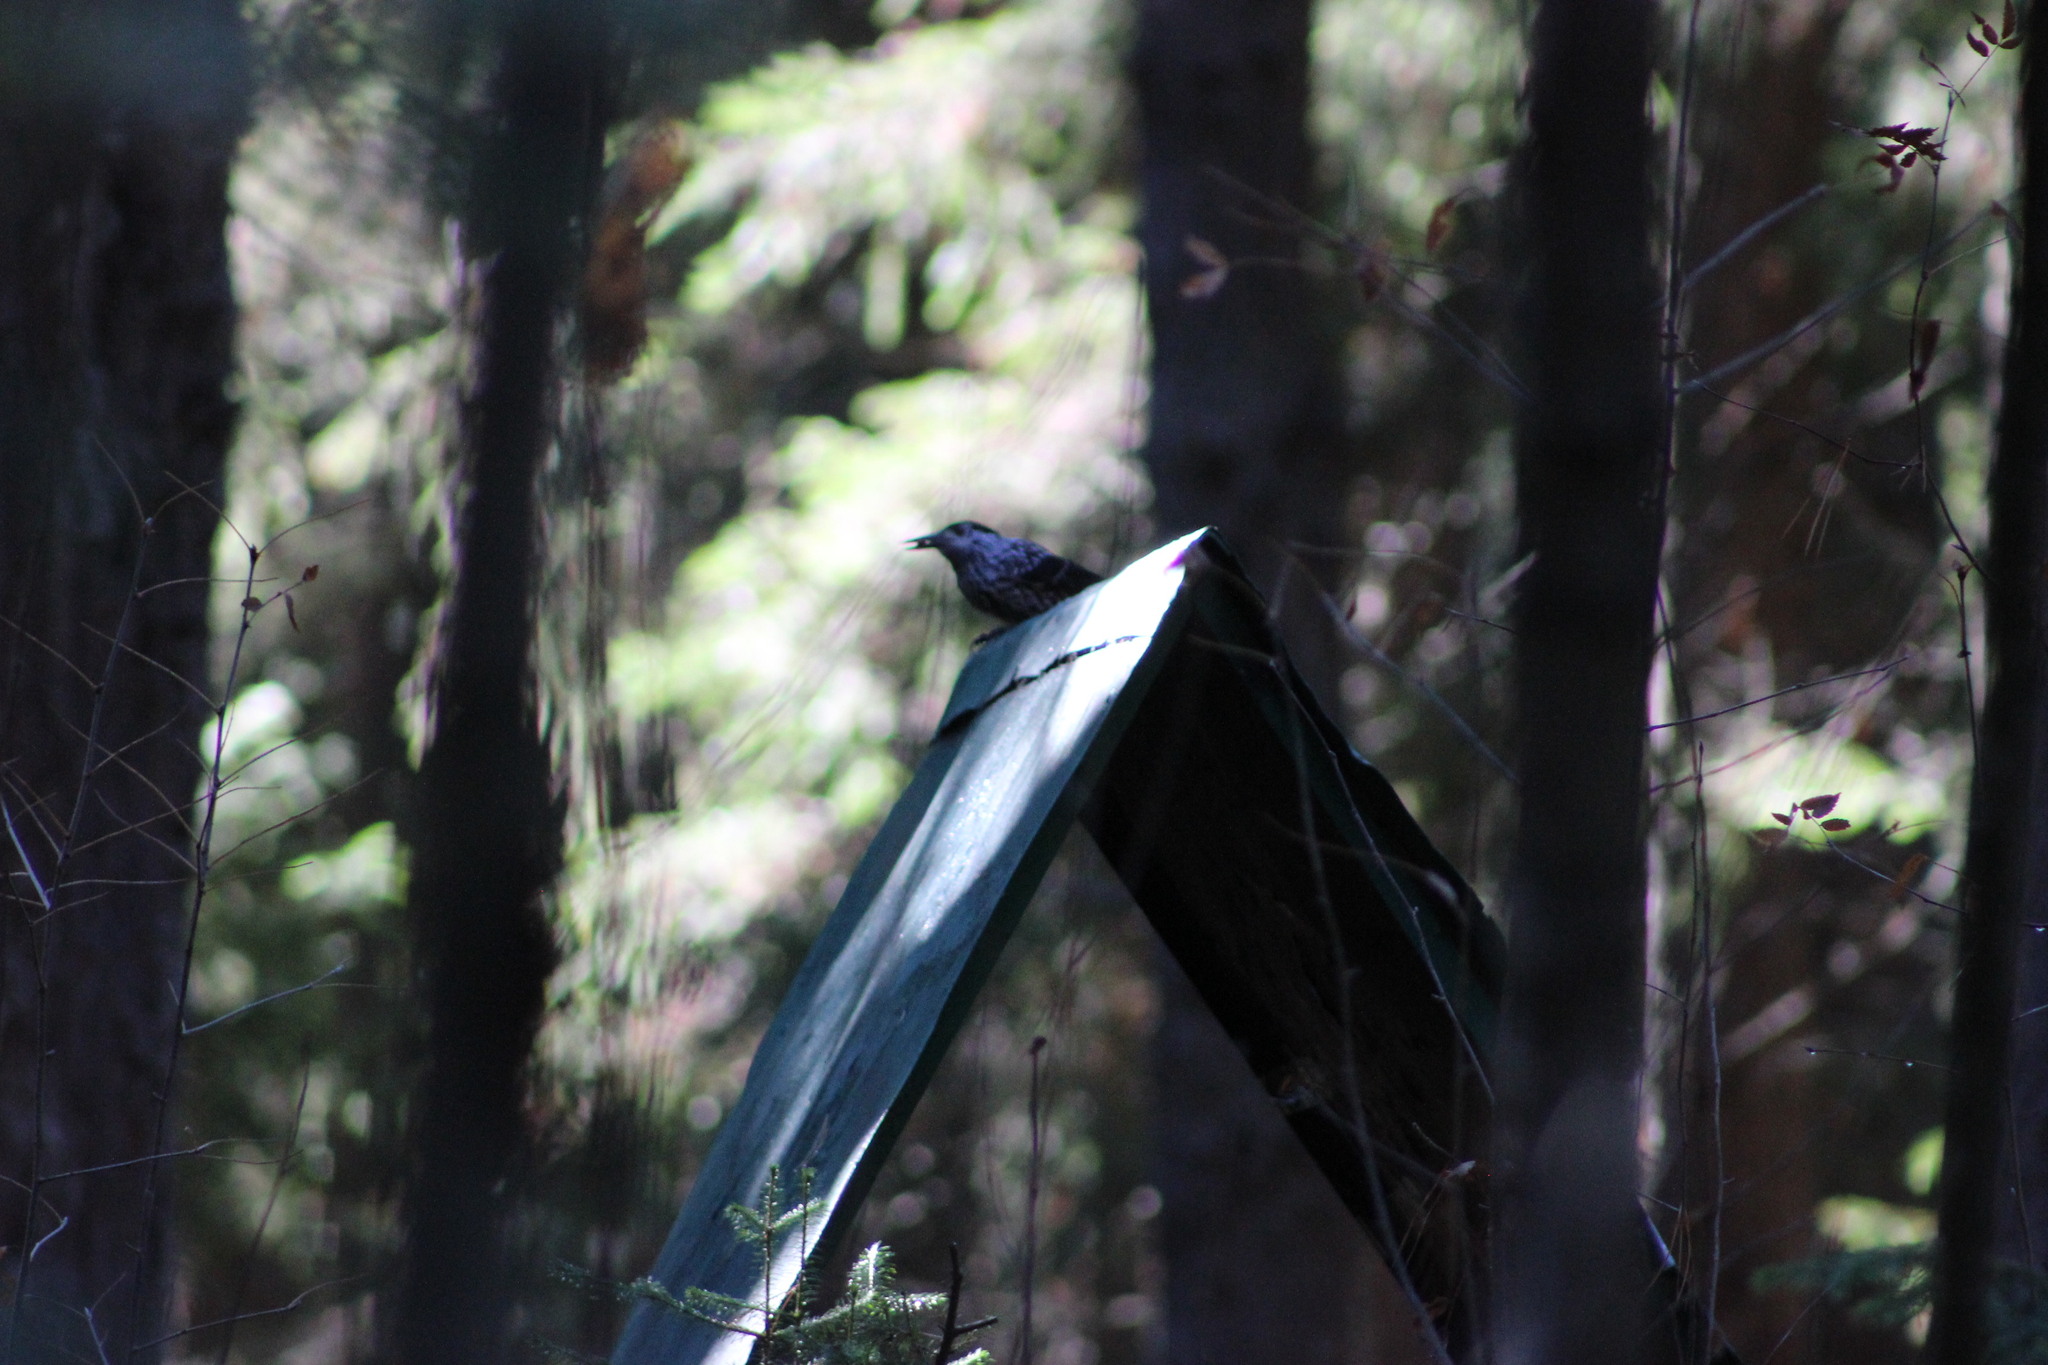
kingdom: Animalia
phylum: Chordata
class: Aves
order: Passeriformes
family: Corvidae
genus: Nucifraga
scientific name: Nucifraga caryocatactes
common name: Spotted nutcracker
